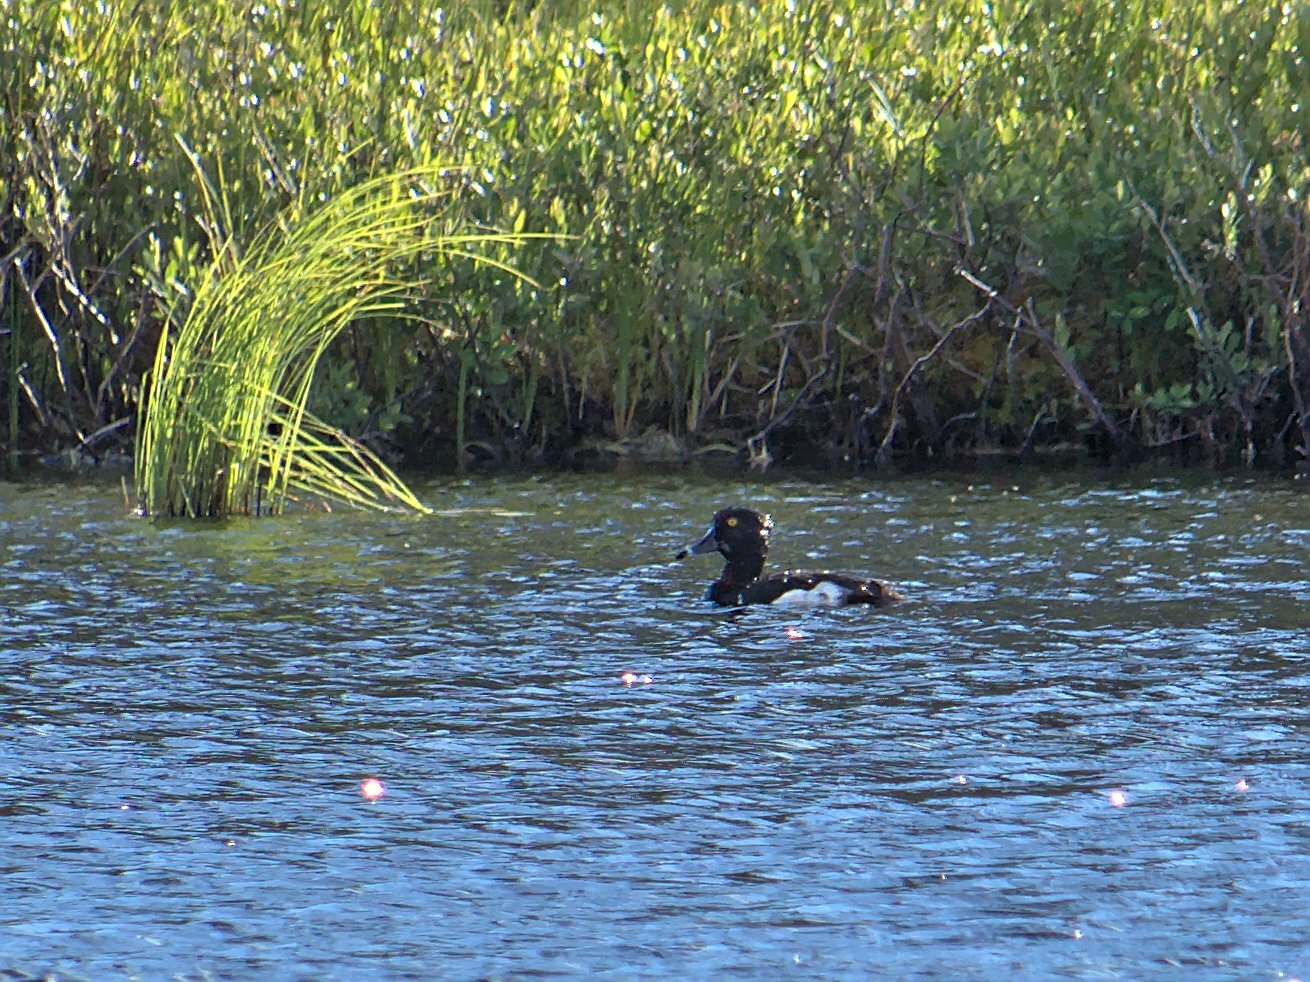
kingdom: Animalia
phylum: Chordata
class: Aves
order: Anseriformes
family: Anatidae
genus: Aythya
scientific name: Aythya collaris
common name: Ring-necked duck
